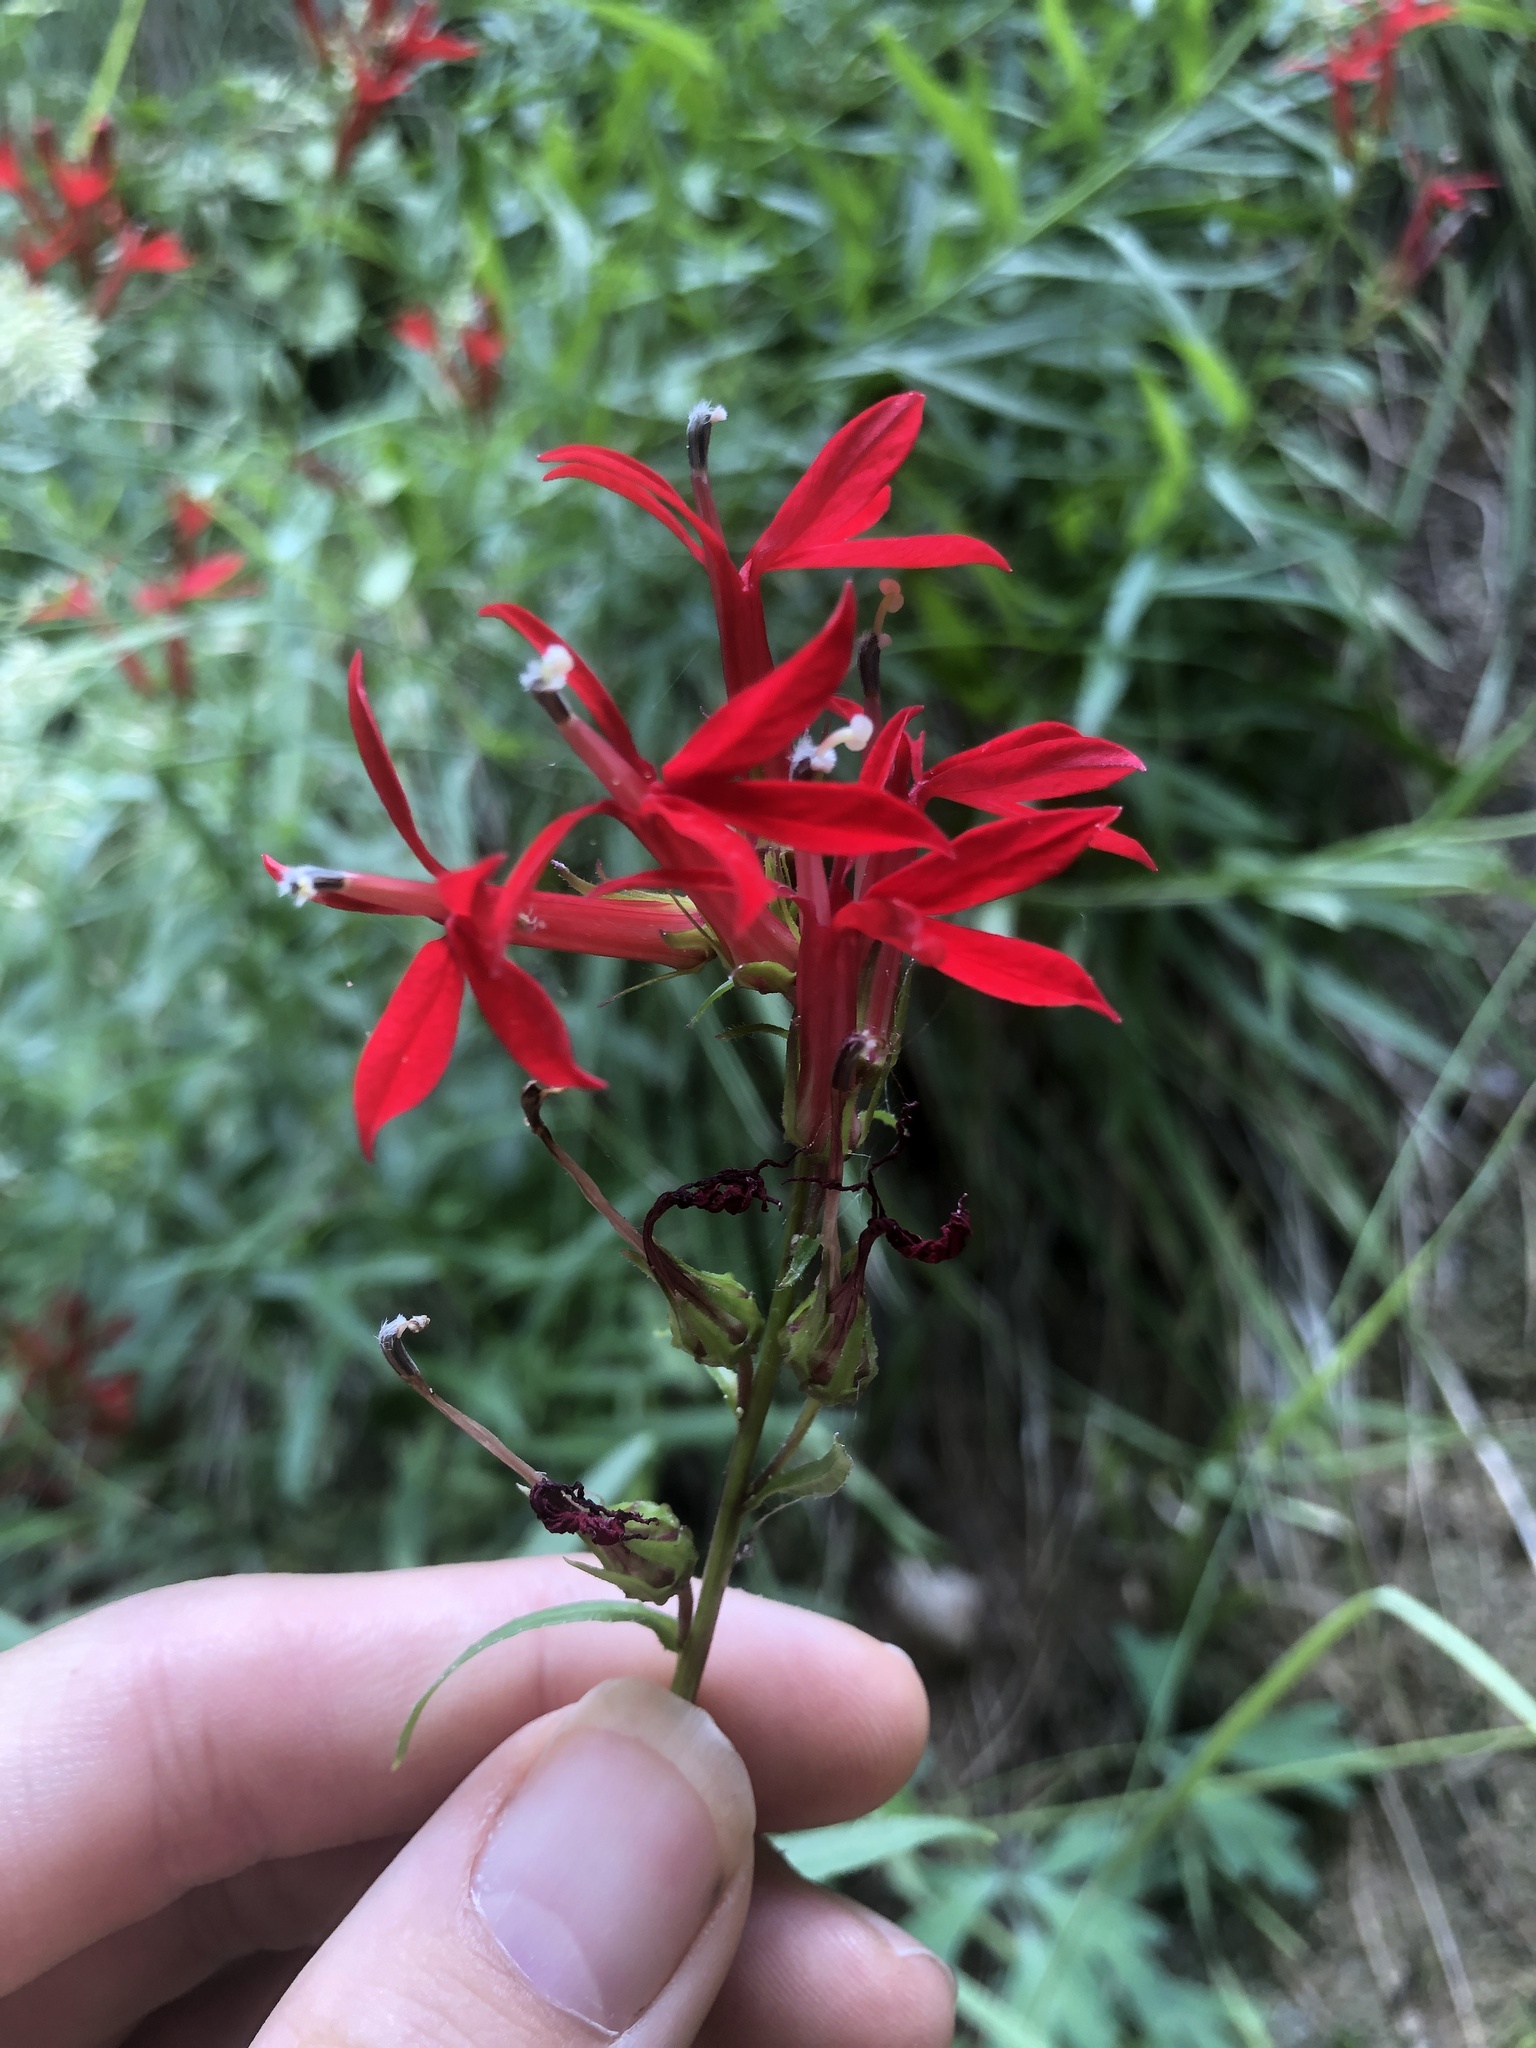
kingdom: Plantae
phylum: Tracheophyta
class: Magnoliopsida
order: Asterales
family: Campanulaceae
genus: Lobelia
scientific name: Lobelia cardinalis
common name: Cardinal flower
